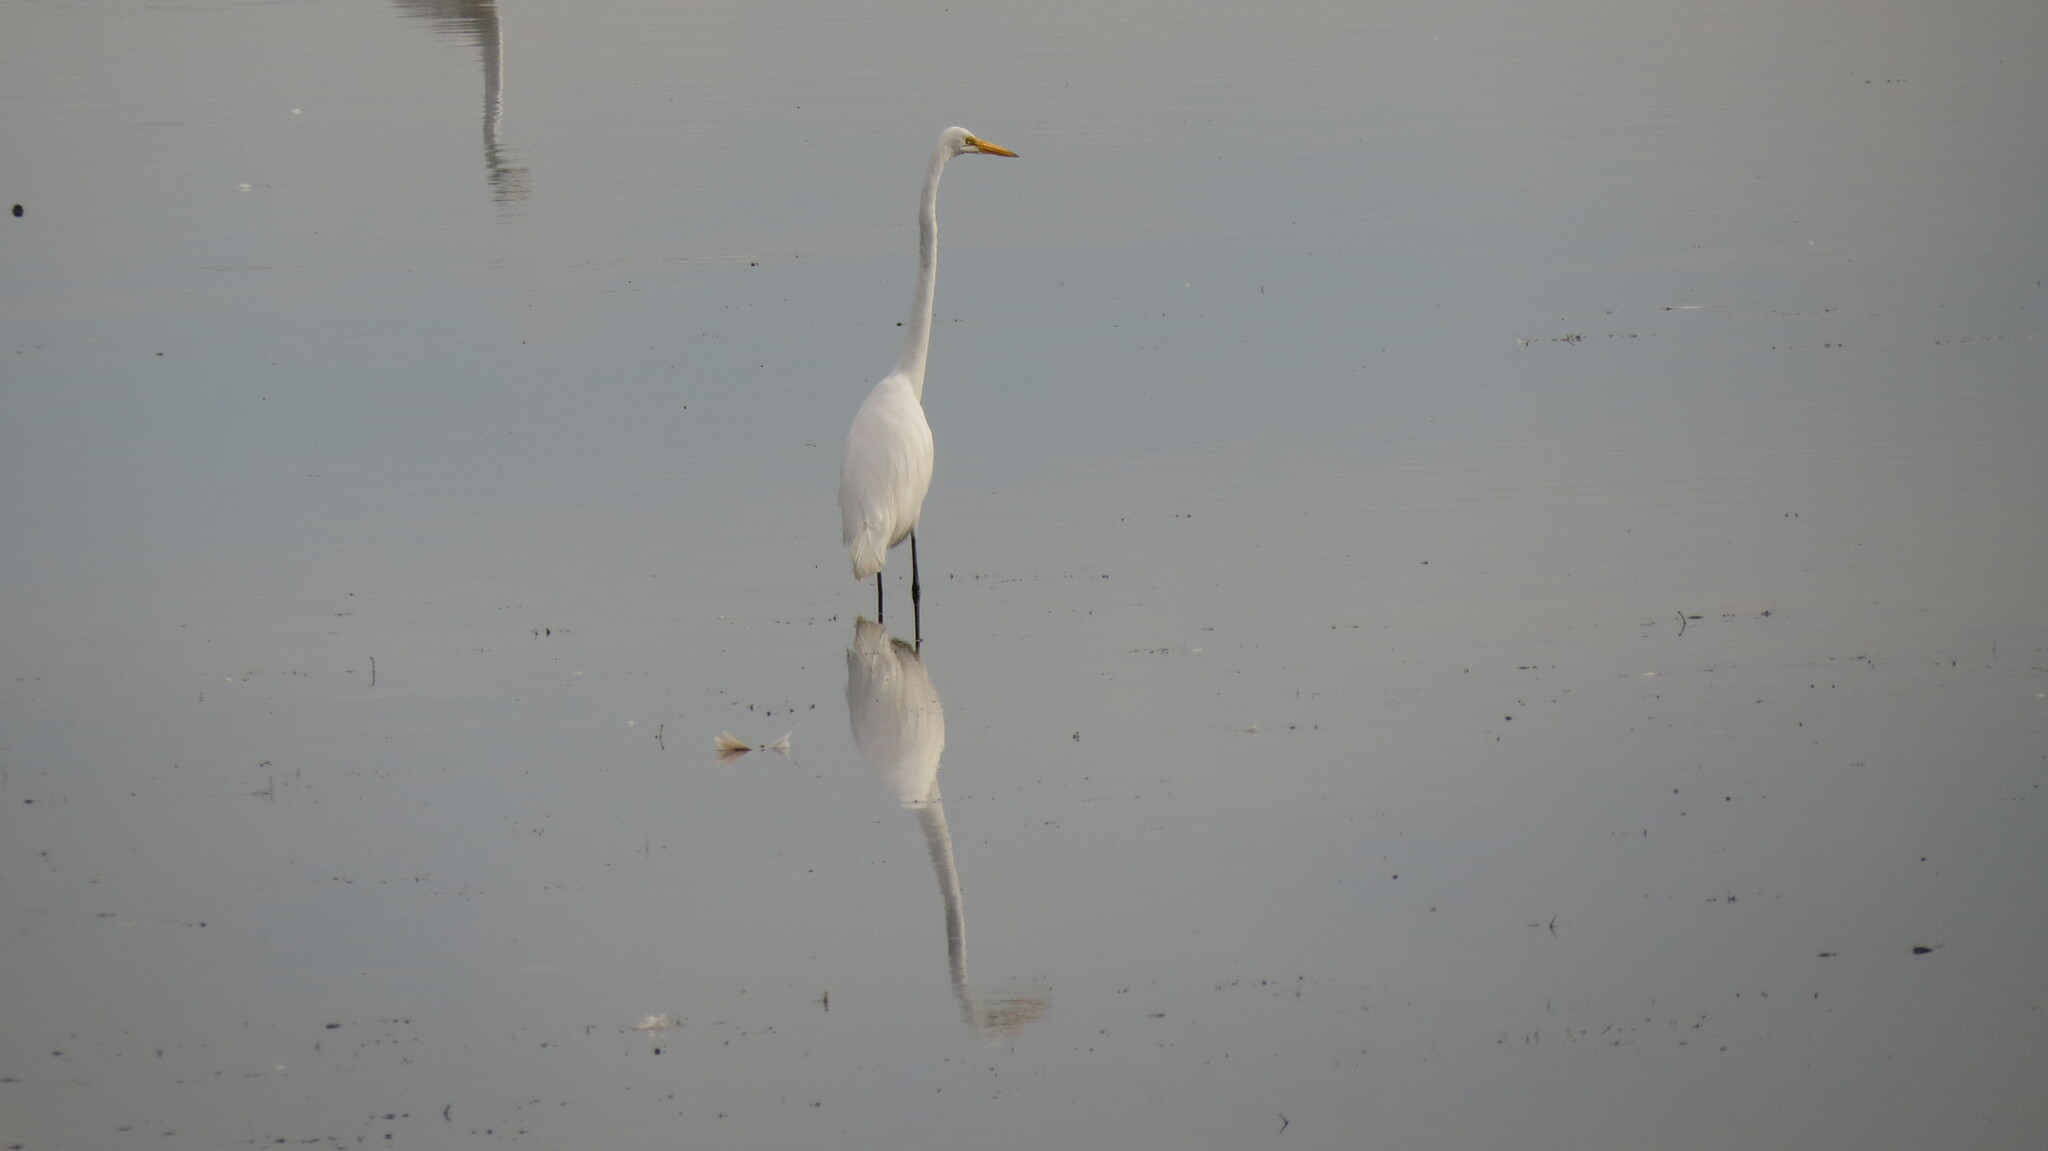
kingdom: Animalia
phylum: Chordata
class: Aves
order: Pelecaniformes
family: Ardeidae
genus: Ardea
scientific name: Ardea alba
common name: Great egret
